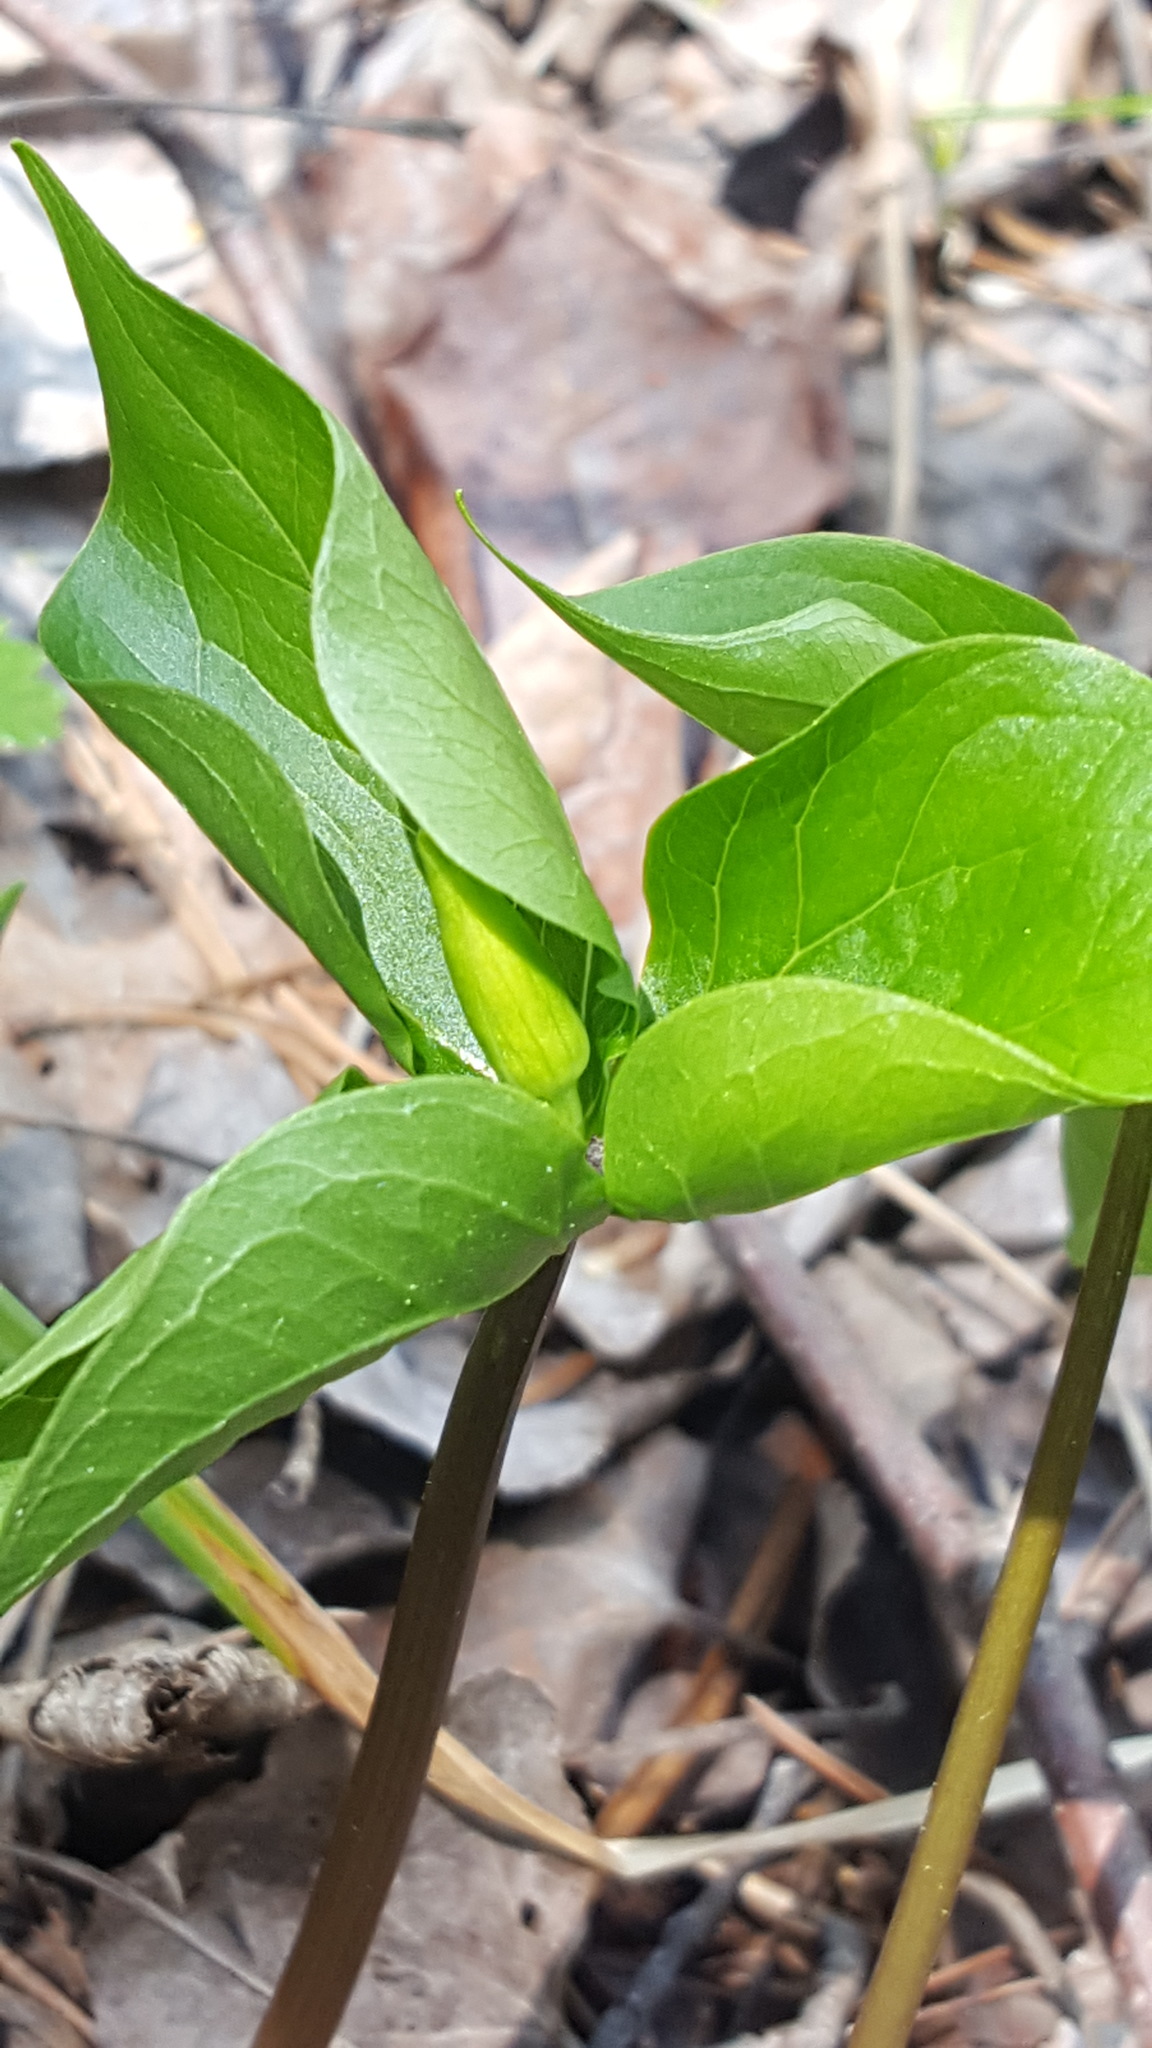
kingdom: Plantae
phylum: Tracheophyta
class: Liliopsida
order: Liliales
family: Melanthiaceae
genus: Trillium
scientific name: Trillium cernuum
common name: Nodding trillium
